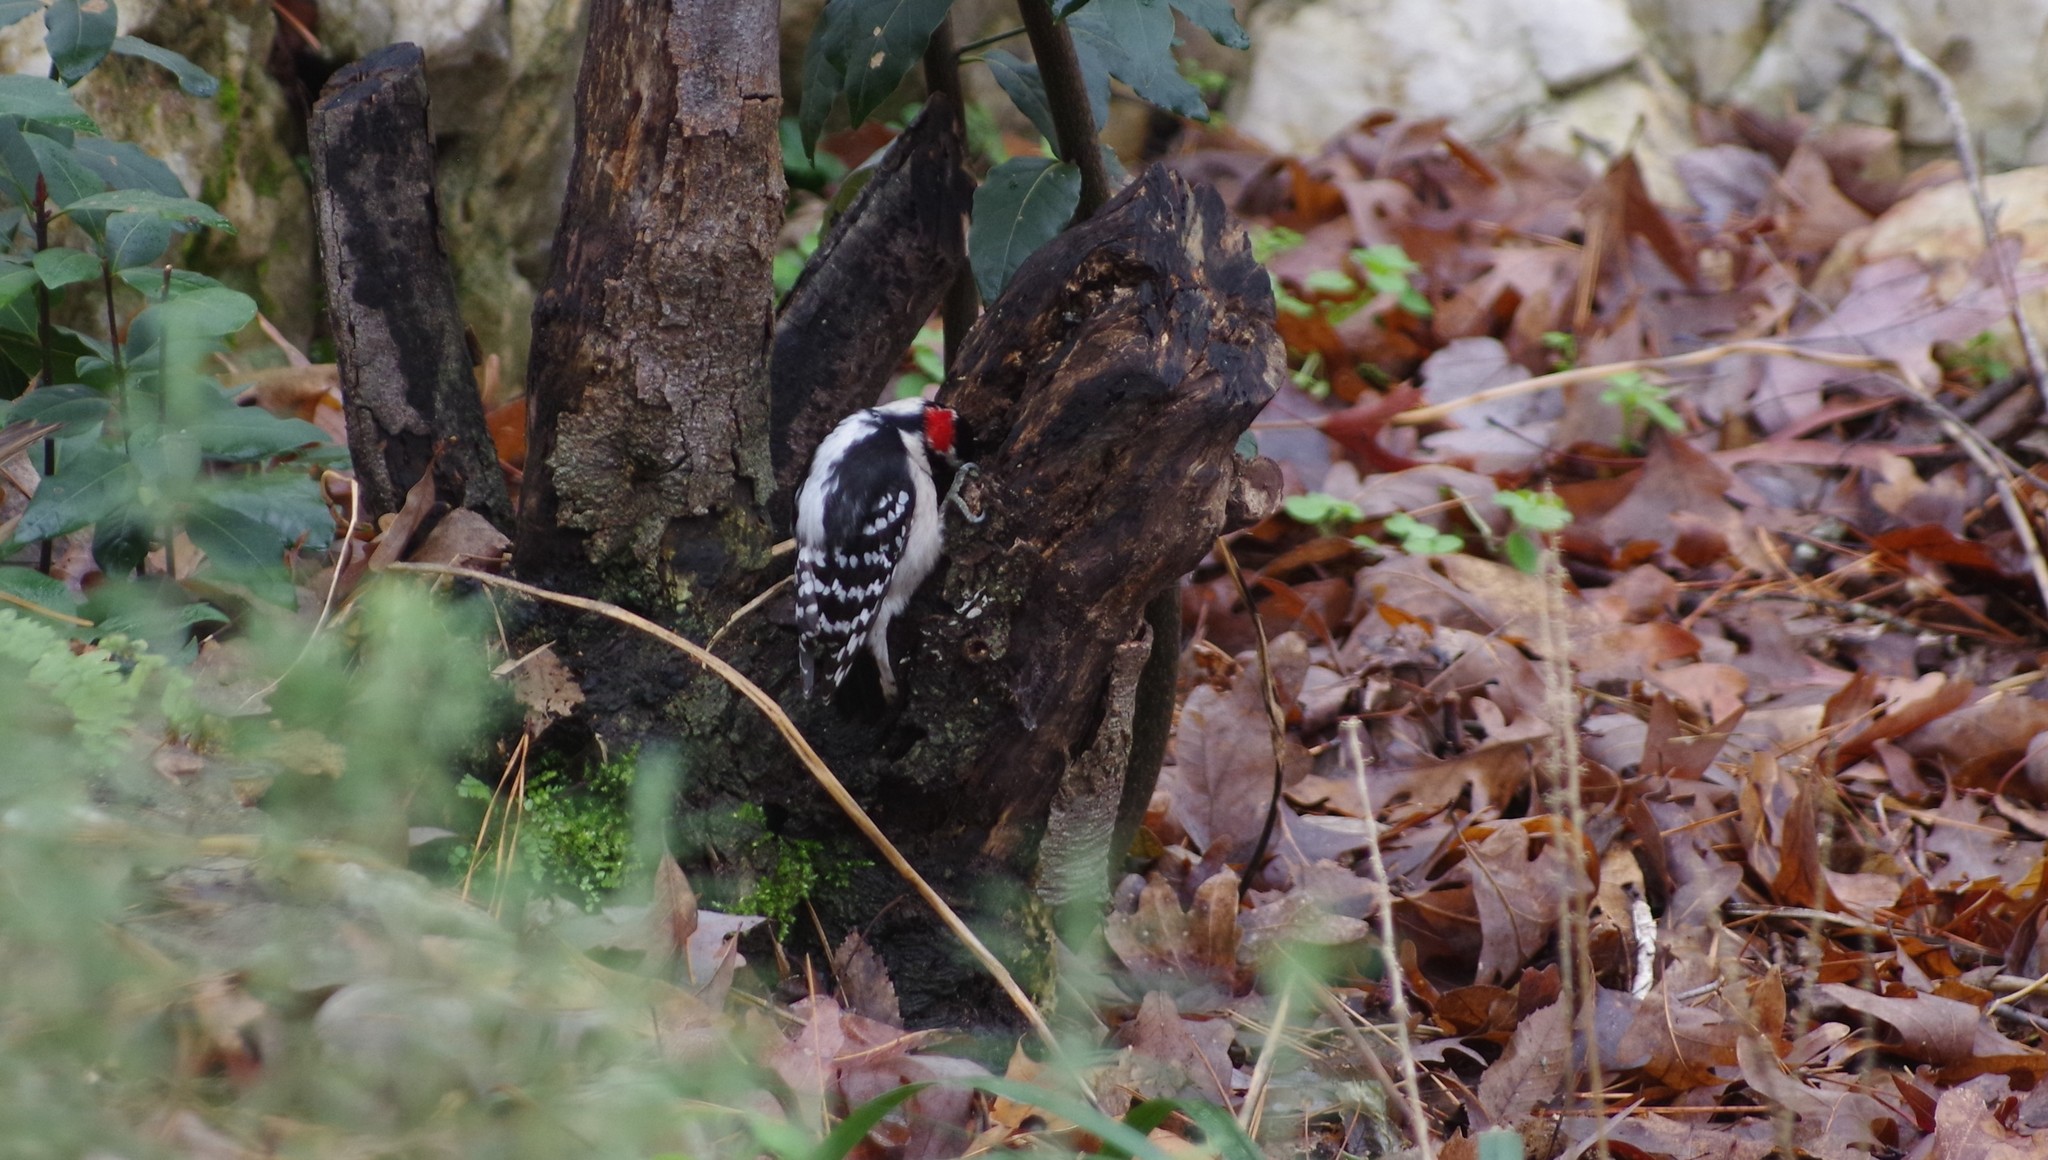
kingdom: Animalia
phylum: Chordata
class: Aves
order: Piciformes
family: Picidae
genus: Dryobates
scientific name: Dryobates pubescens
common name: Downy woodpecker
